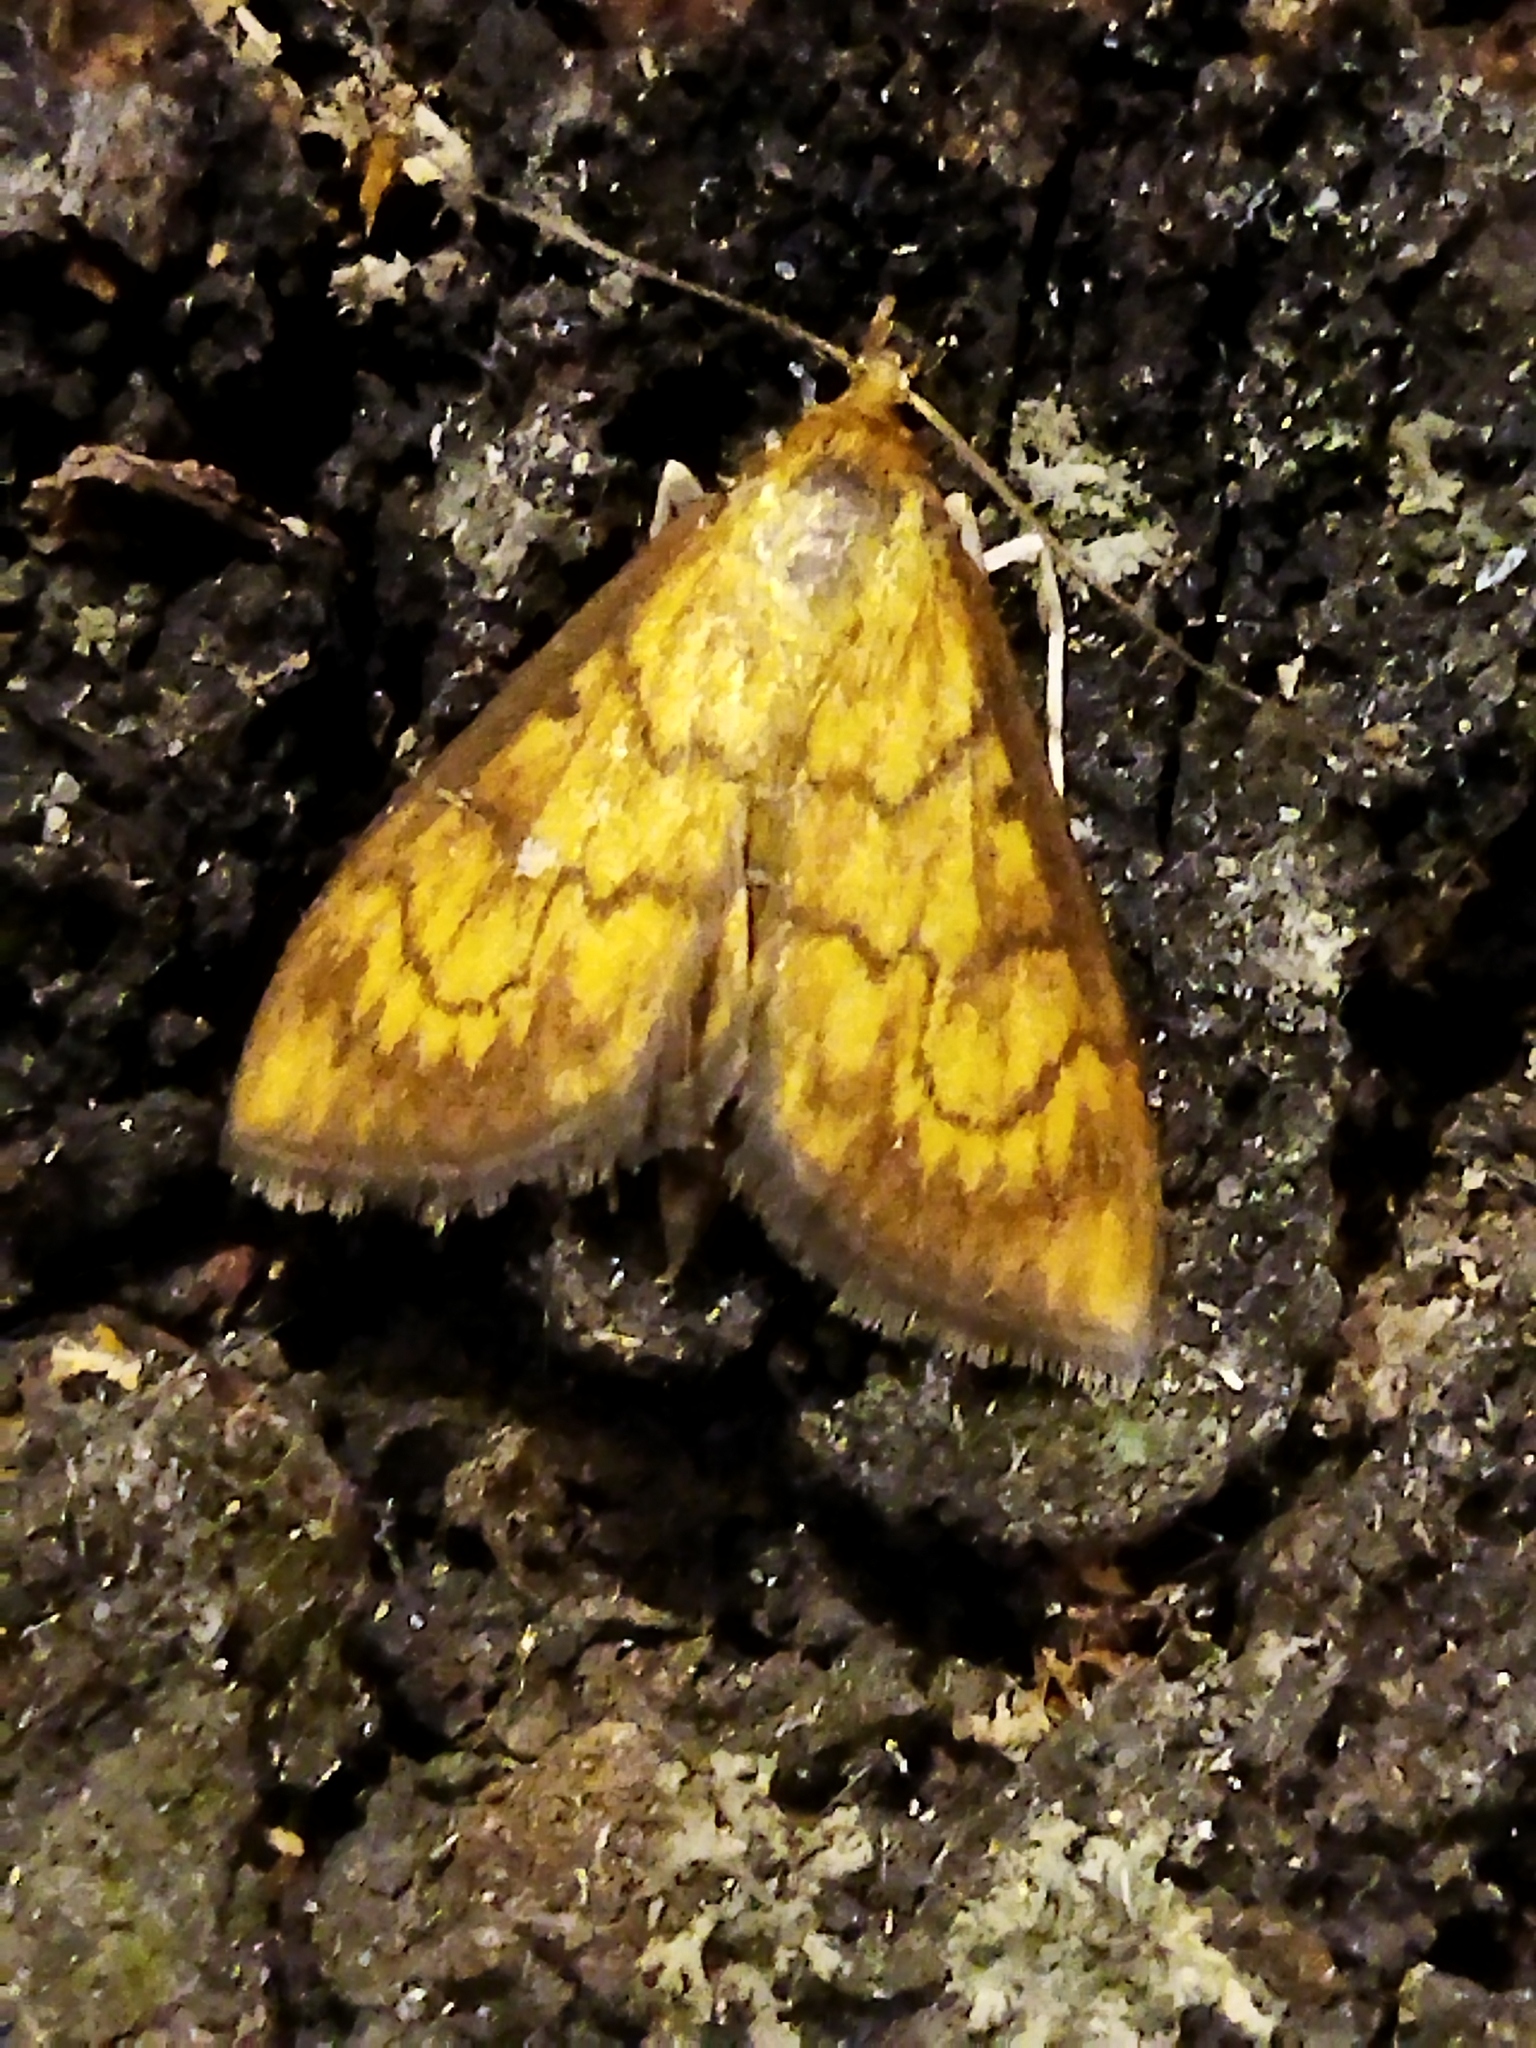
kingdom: Animalia
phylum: Arthropoda
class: Insecta
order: Lepidoptera
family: Crambidae
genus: Ecpyrrhorrhoe
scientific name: Ecpyrrhorrhoe rubiginalis
